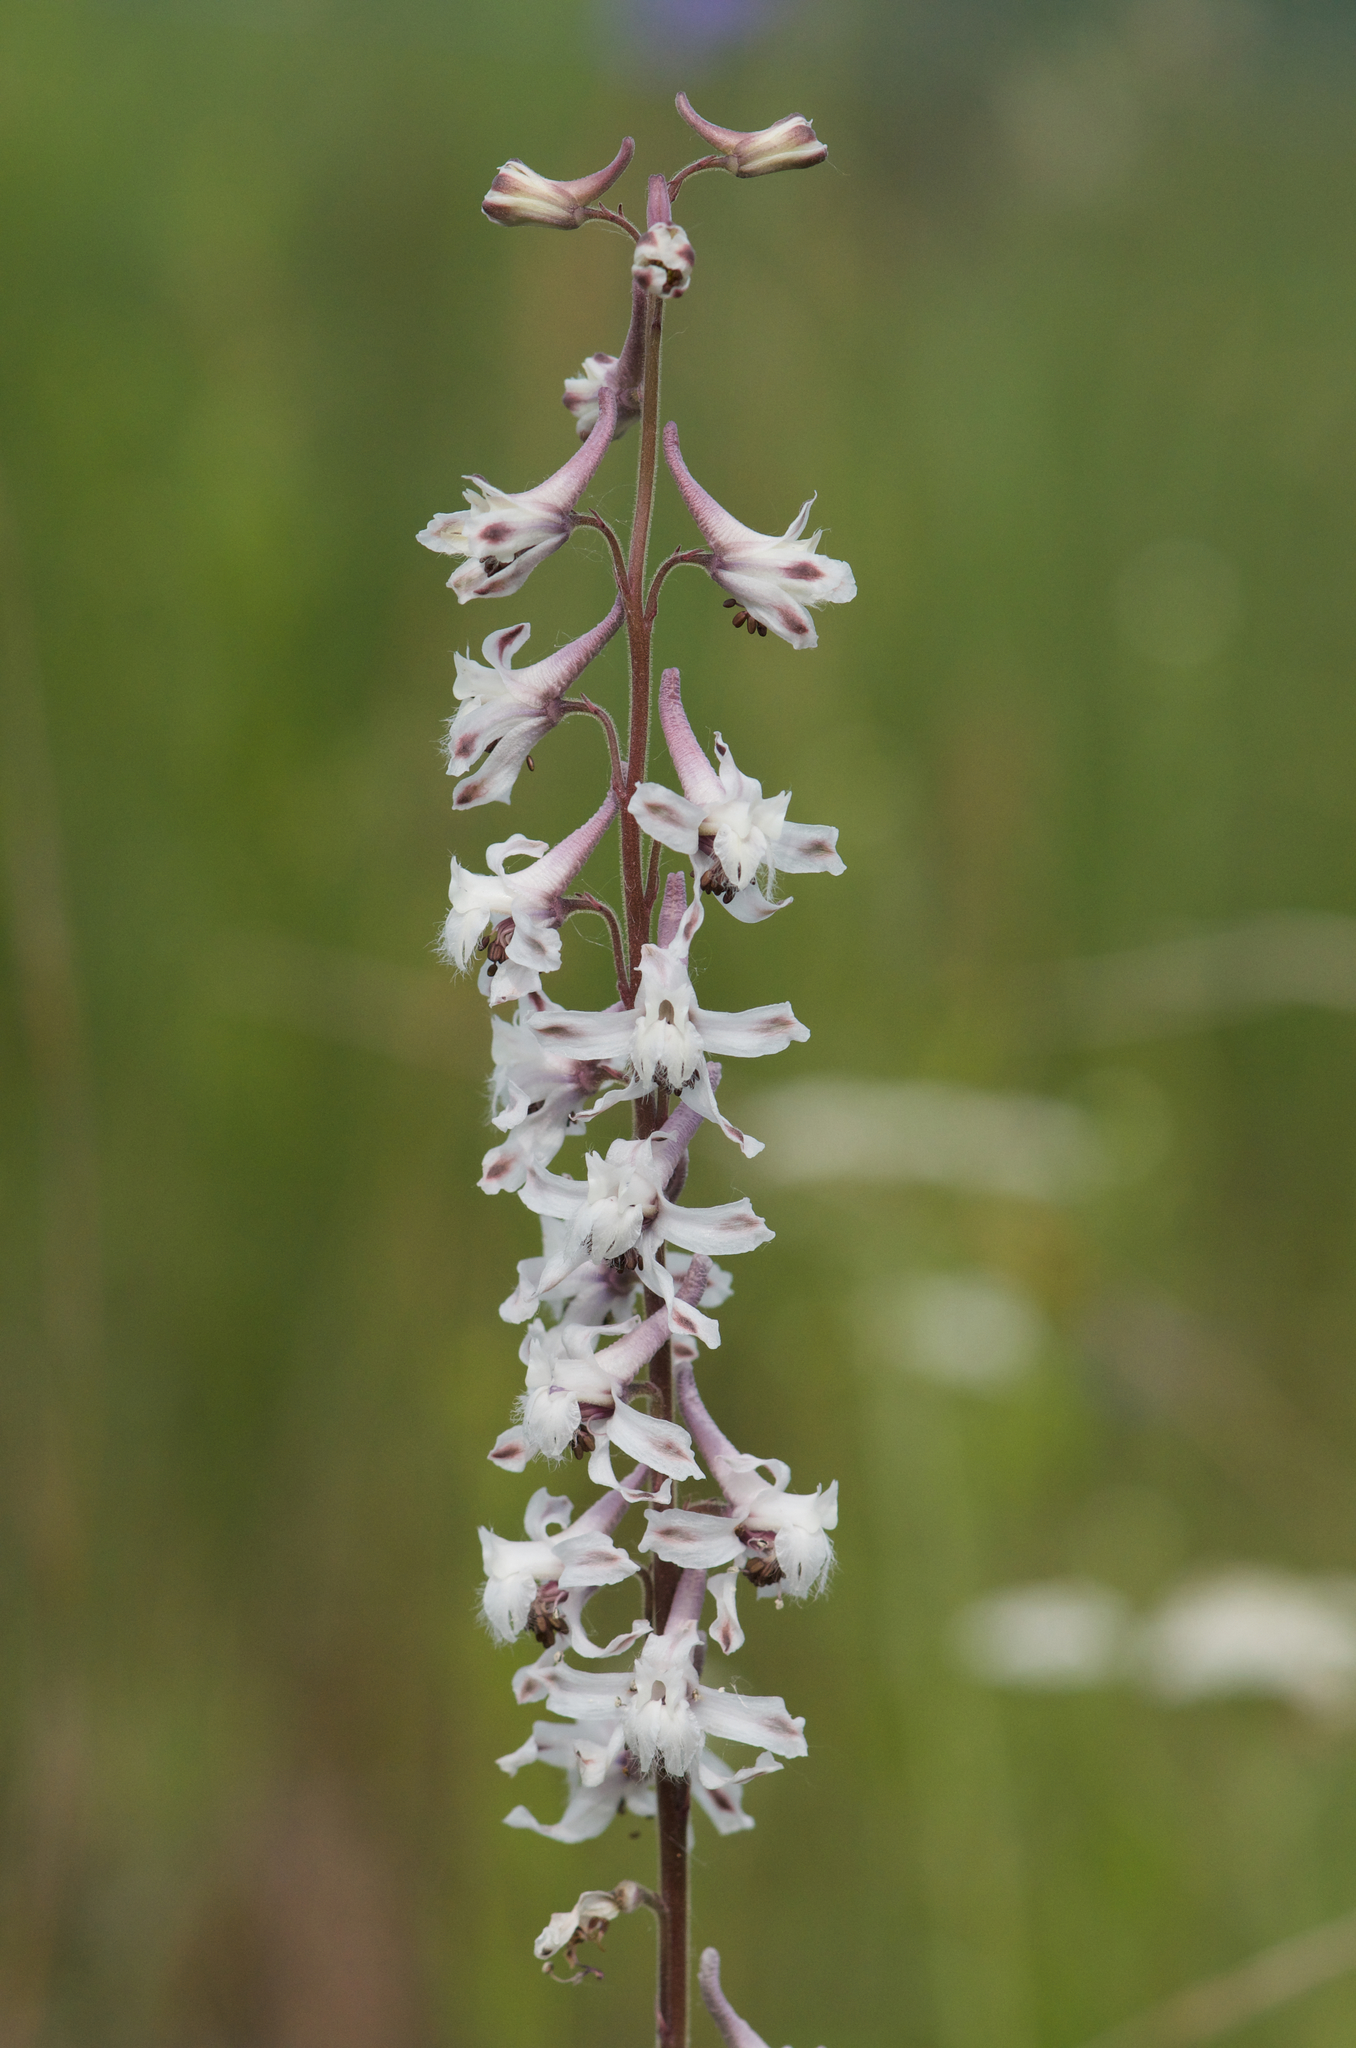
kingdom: Plantae
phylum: Tracheophyta
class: Magnoliopsida
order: Ranunculales
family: Ranunculaceae
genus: Delphinium
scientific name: Delphinium carolinianum
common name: Carolina larkspur
